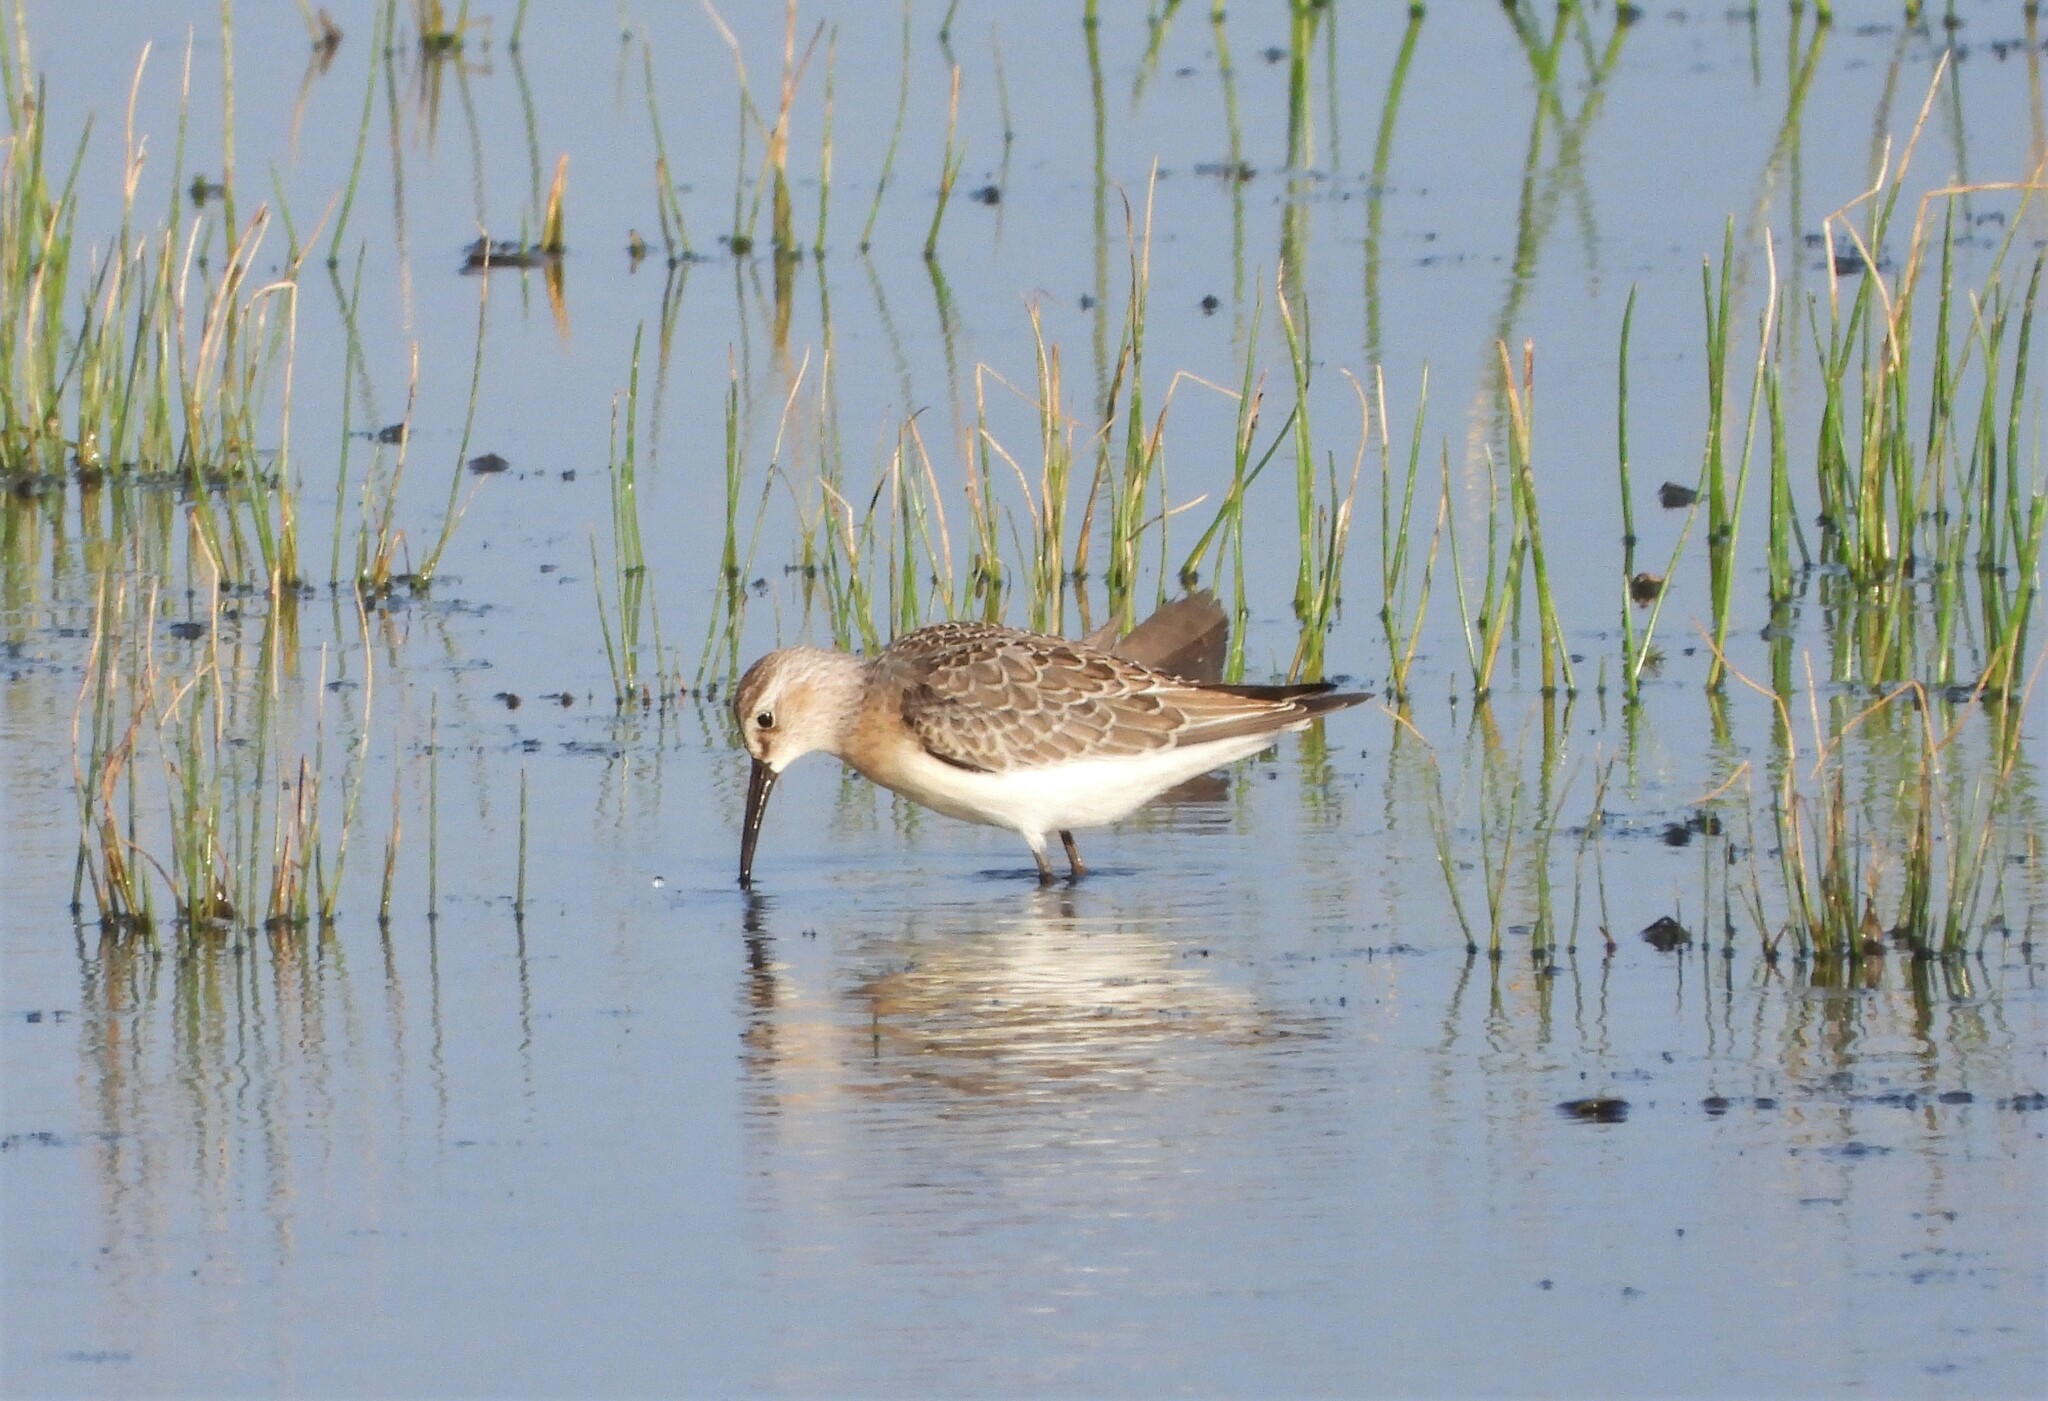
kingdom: Animalia
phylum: Chordata
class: Aves
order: Charadriiformes
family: Scolopacidae
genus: Calidris
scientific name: Calidris ferruginea
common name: Curlew sandpiper
